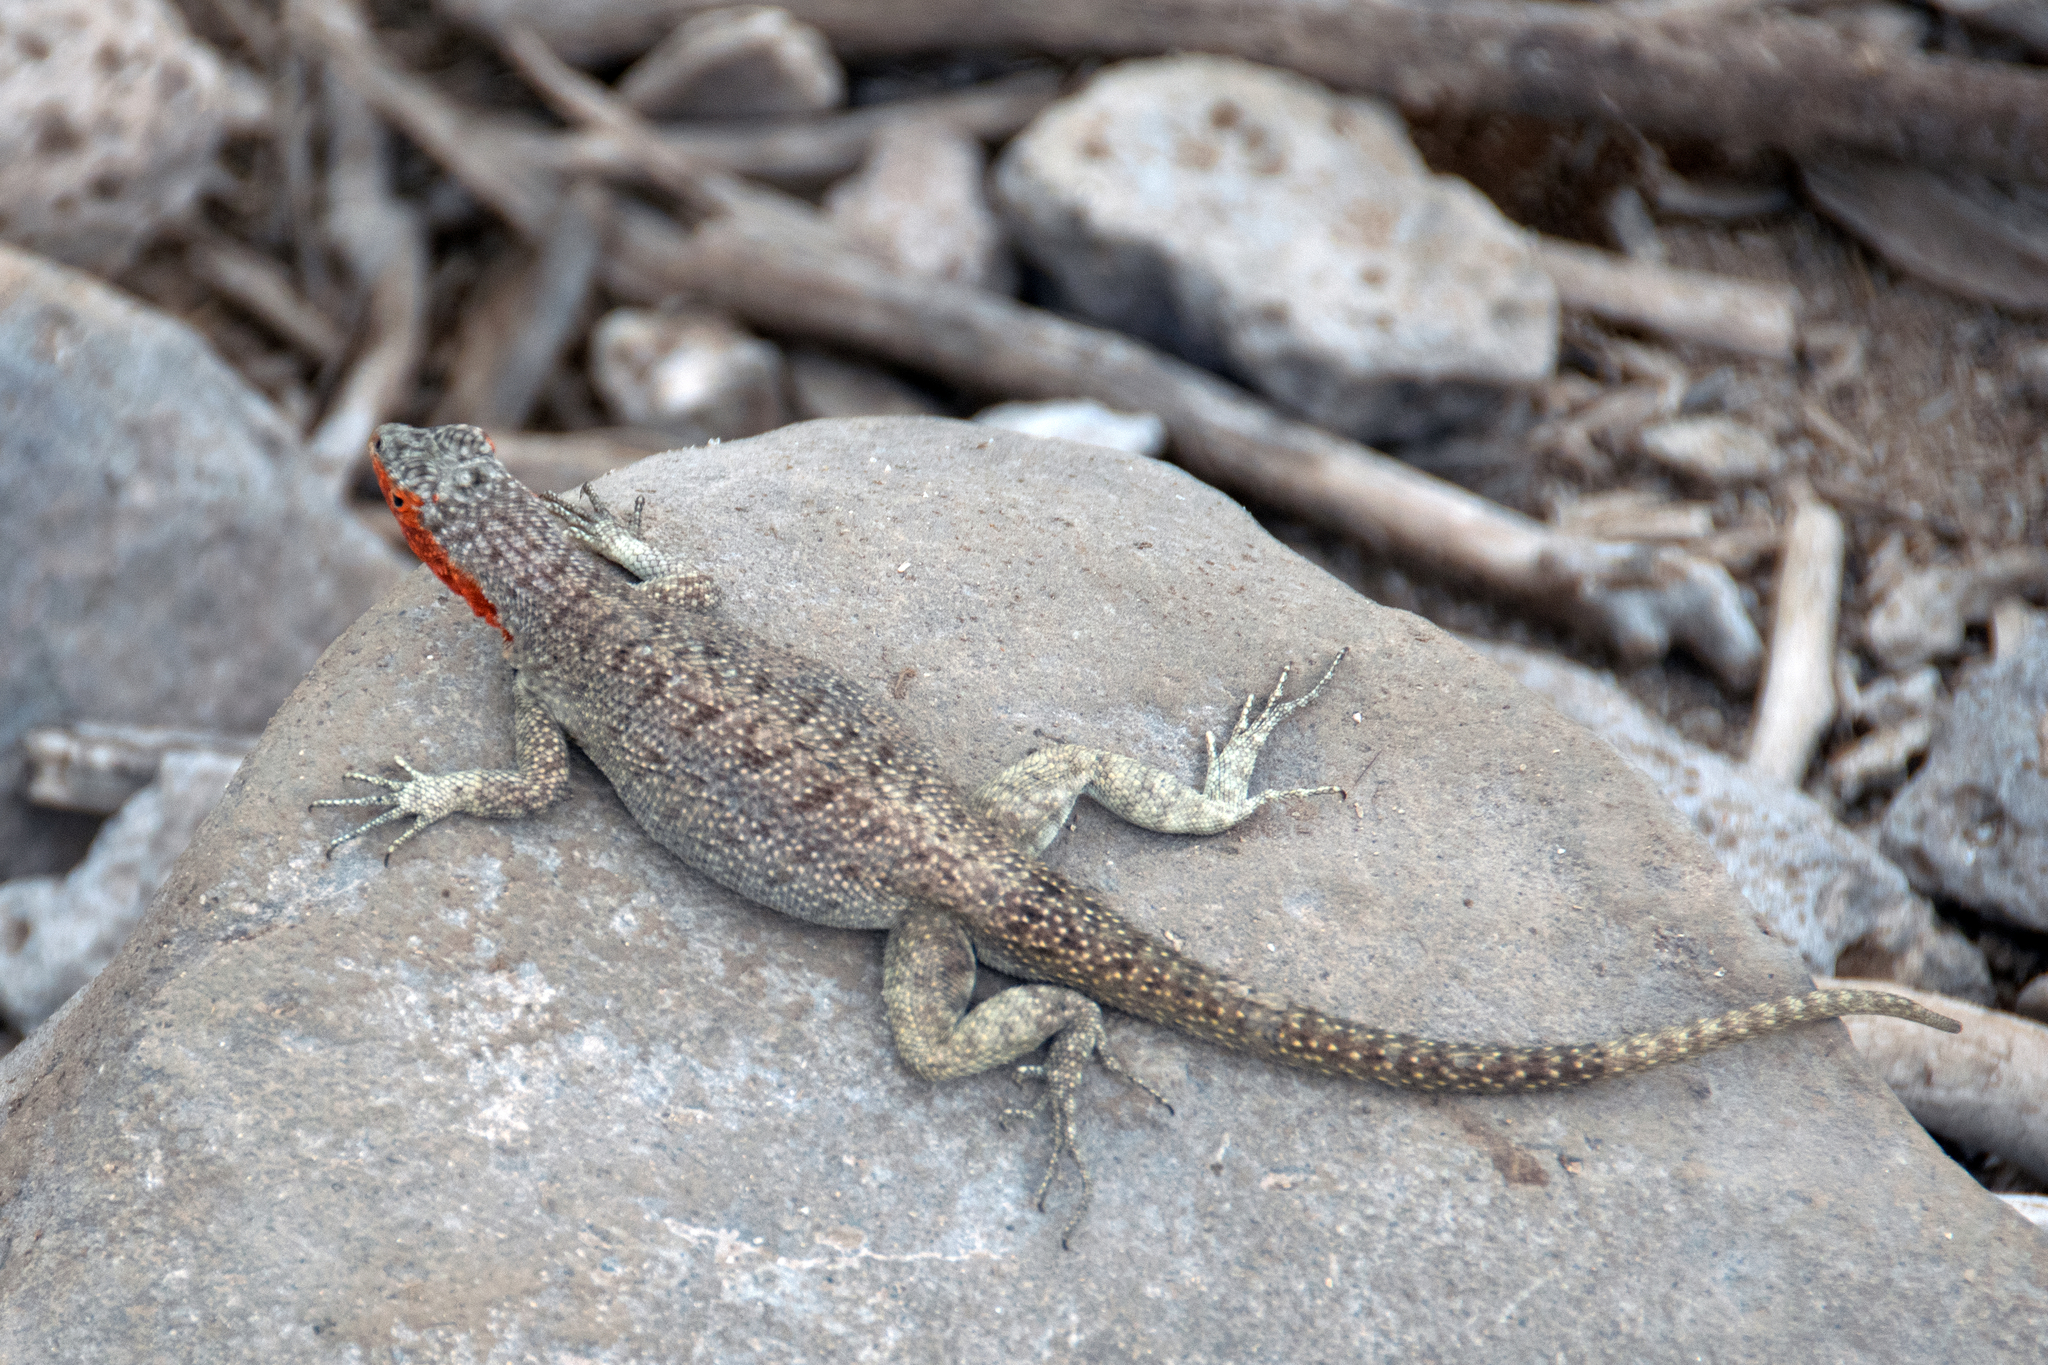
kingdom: Animalia
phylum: Chordata
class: Squamata
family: Tropiduridae
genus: Microlophus
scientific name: Microlophus barringtonensis
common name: Galapagos lava lizard
